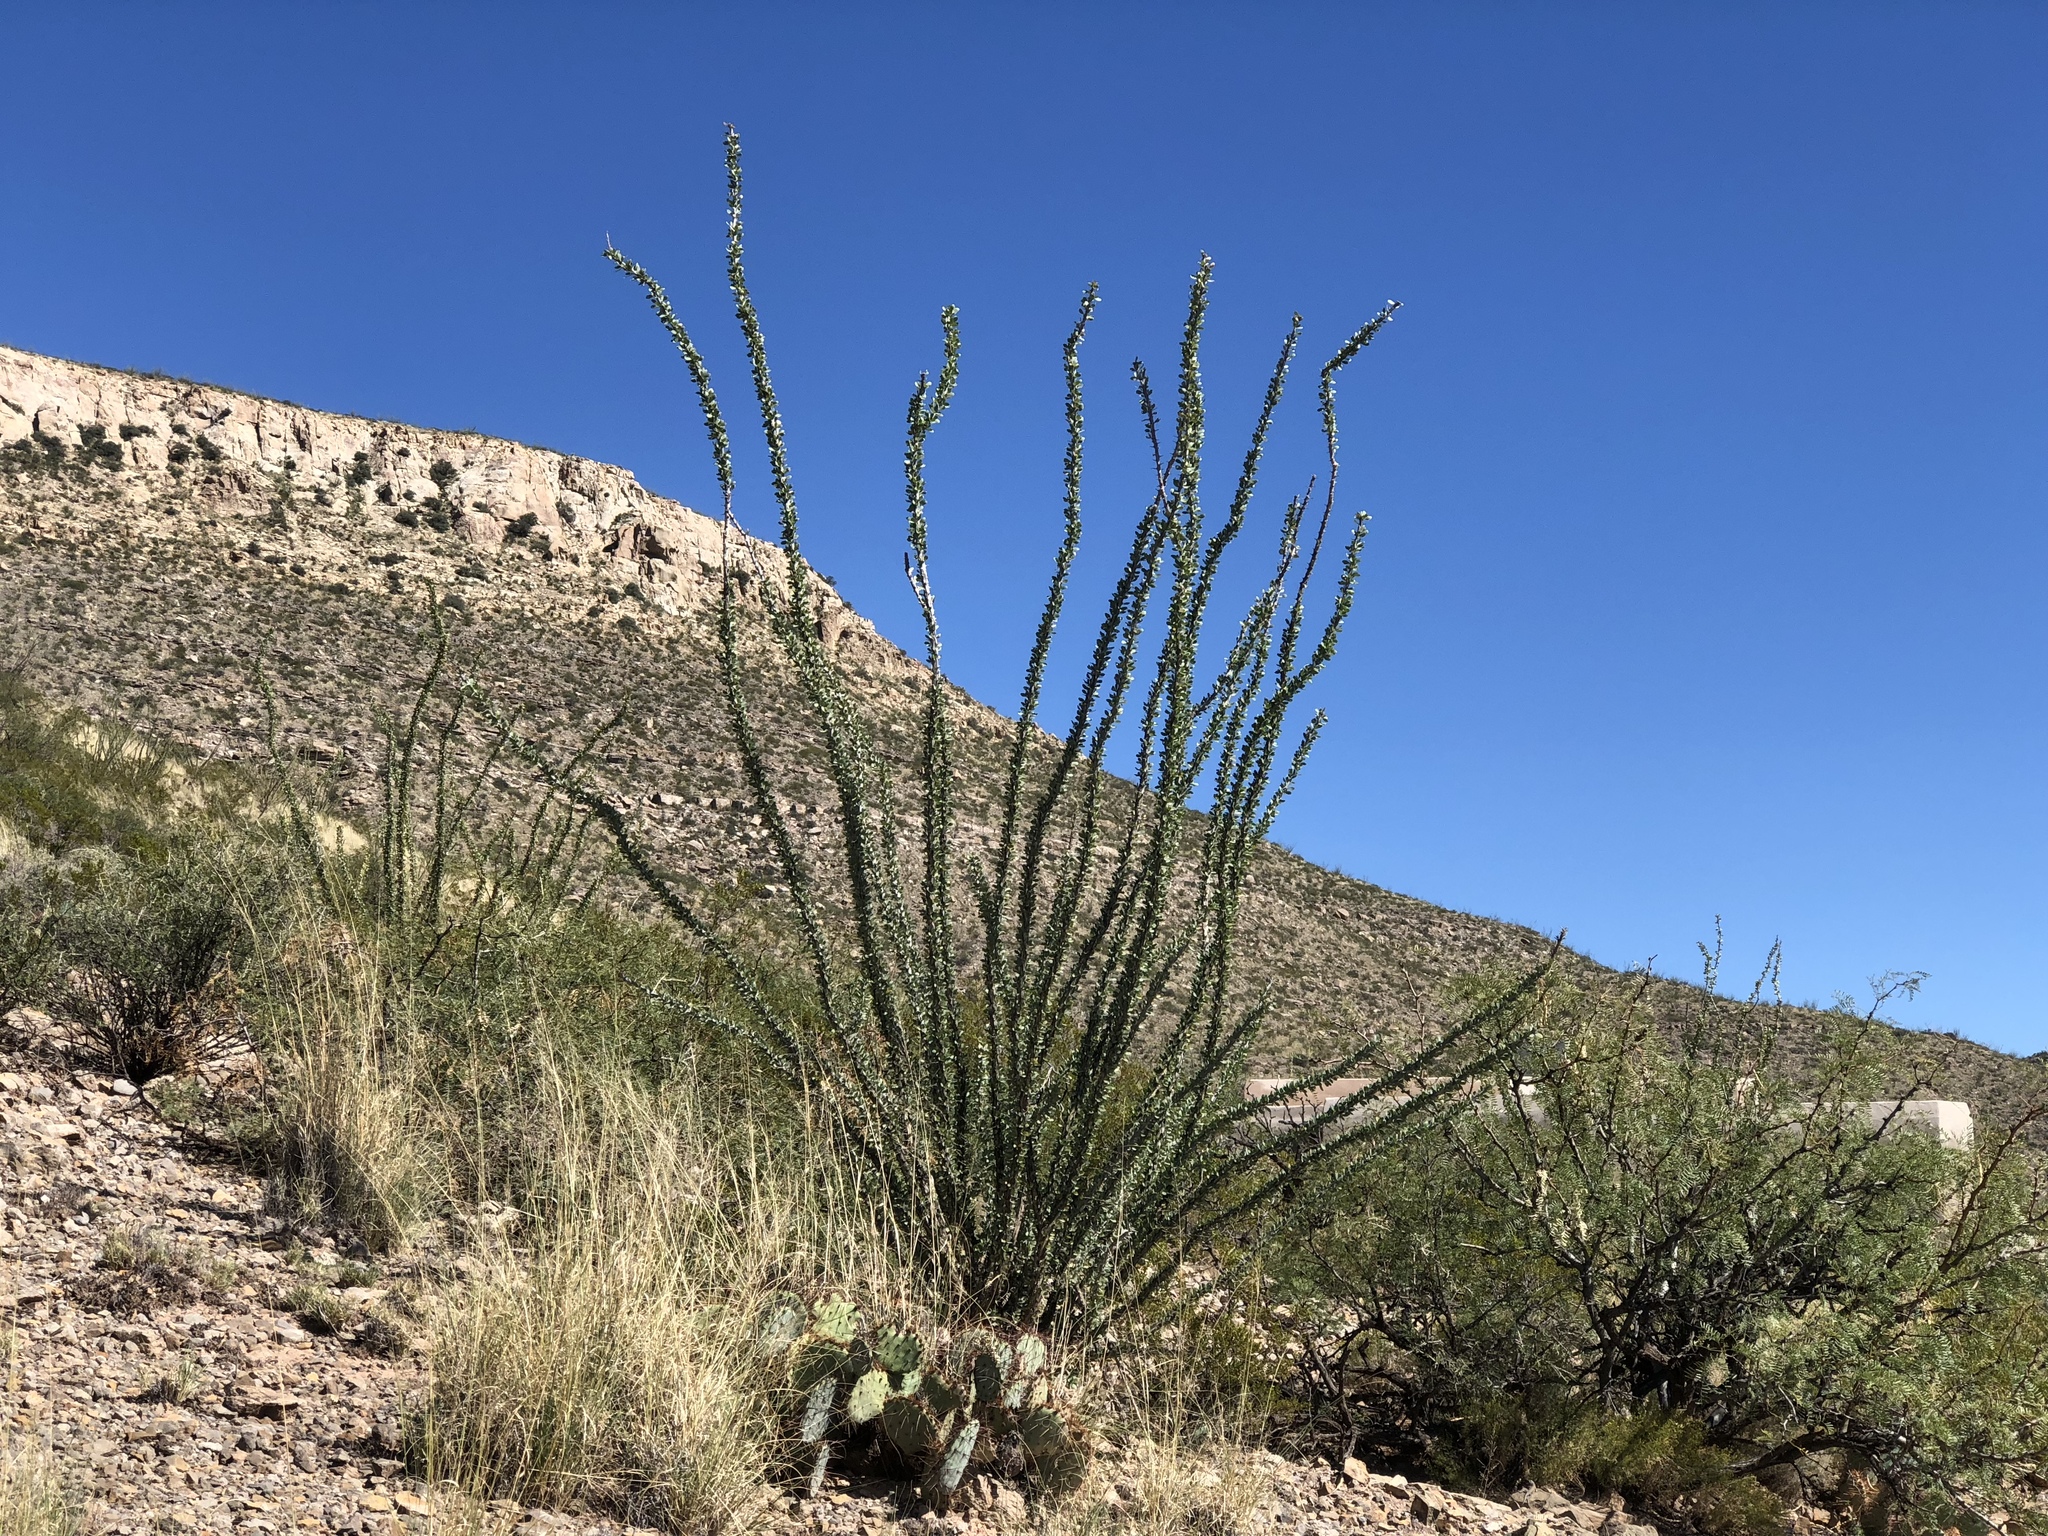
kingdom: Plantae
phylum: Tracheophyta
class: Magnoliopsida
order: Ericales
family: Fouquieriaceae
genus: Fouquieria
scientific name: Fouquieria splendens
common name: Vine-cactus
